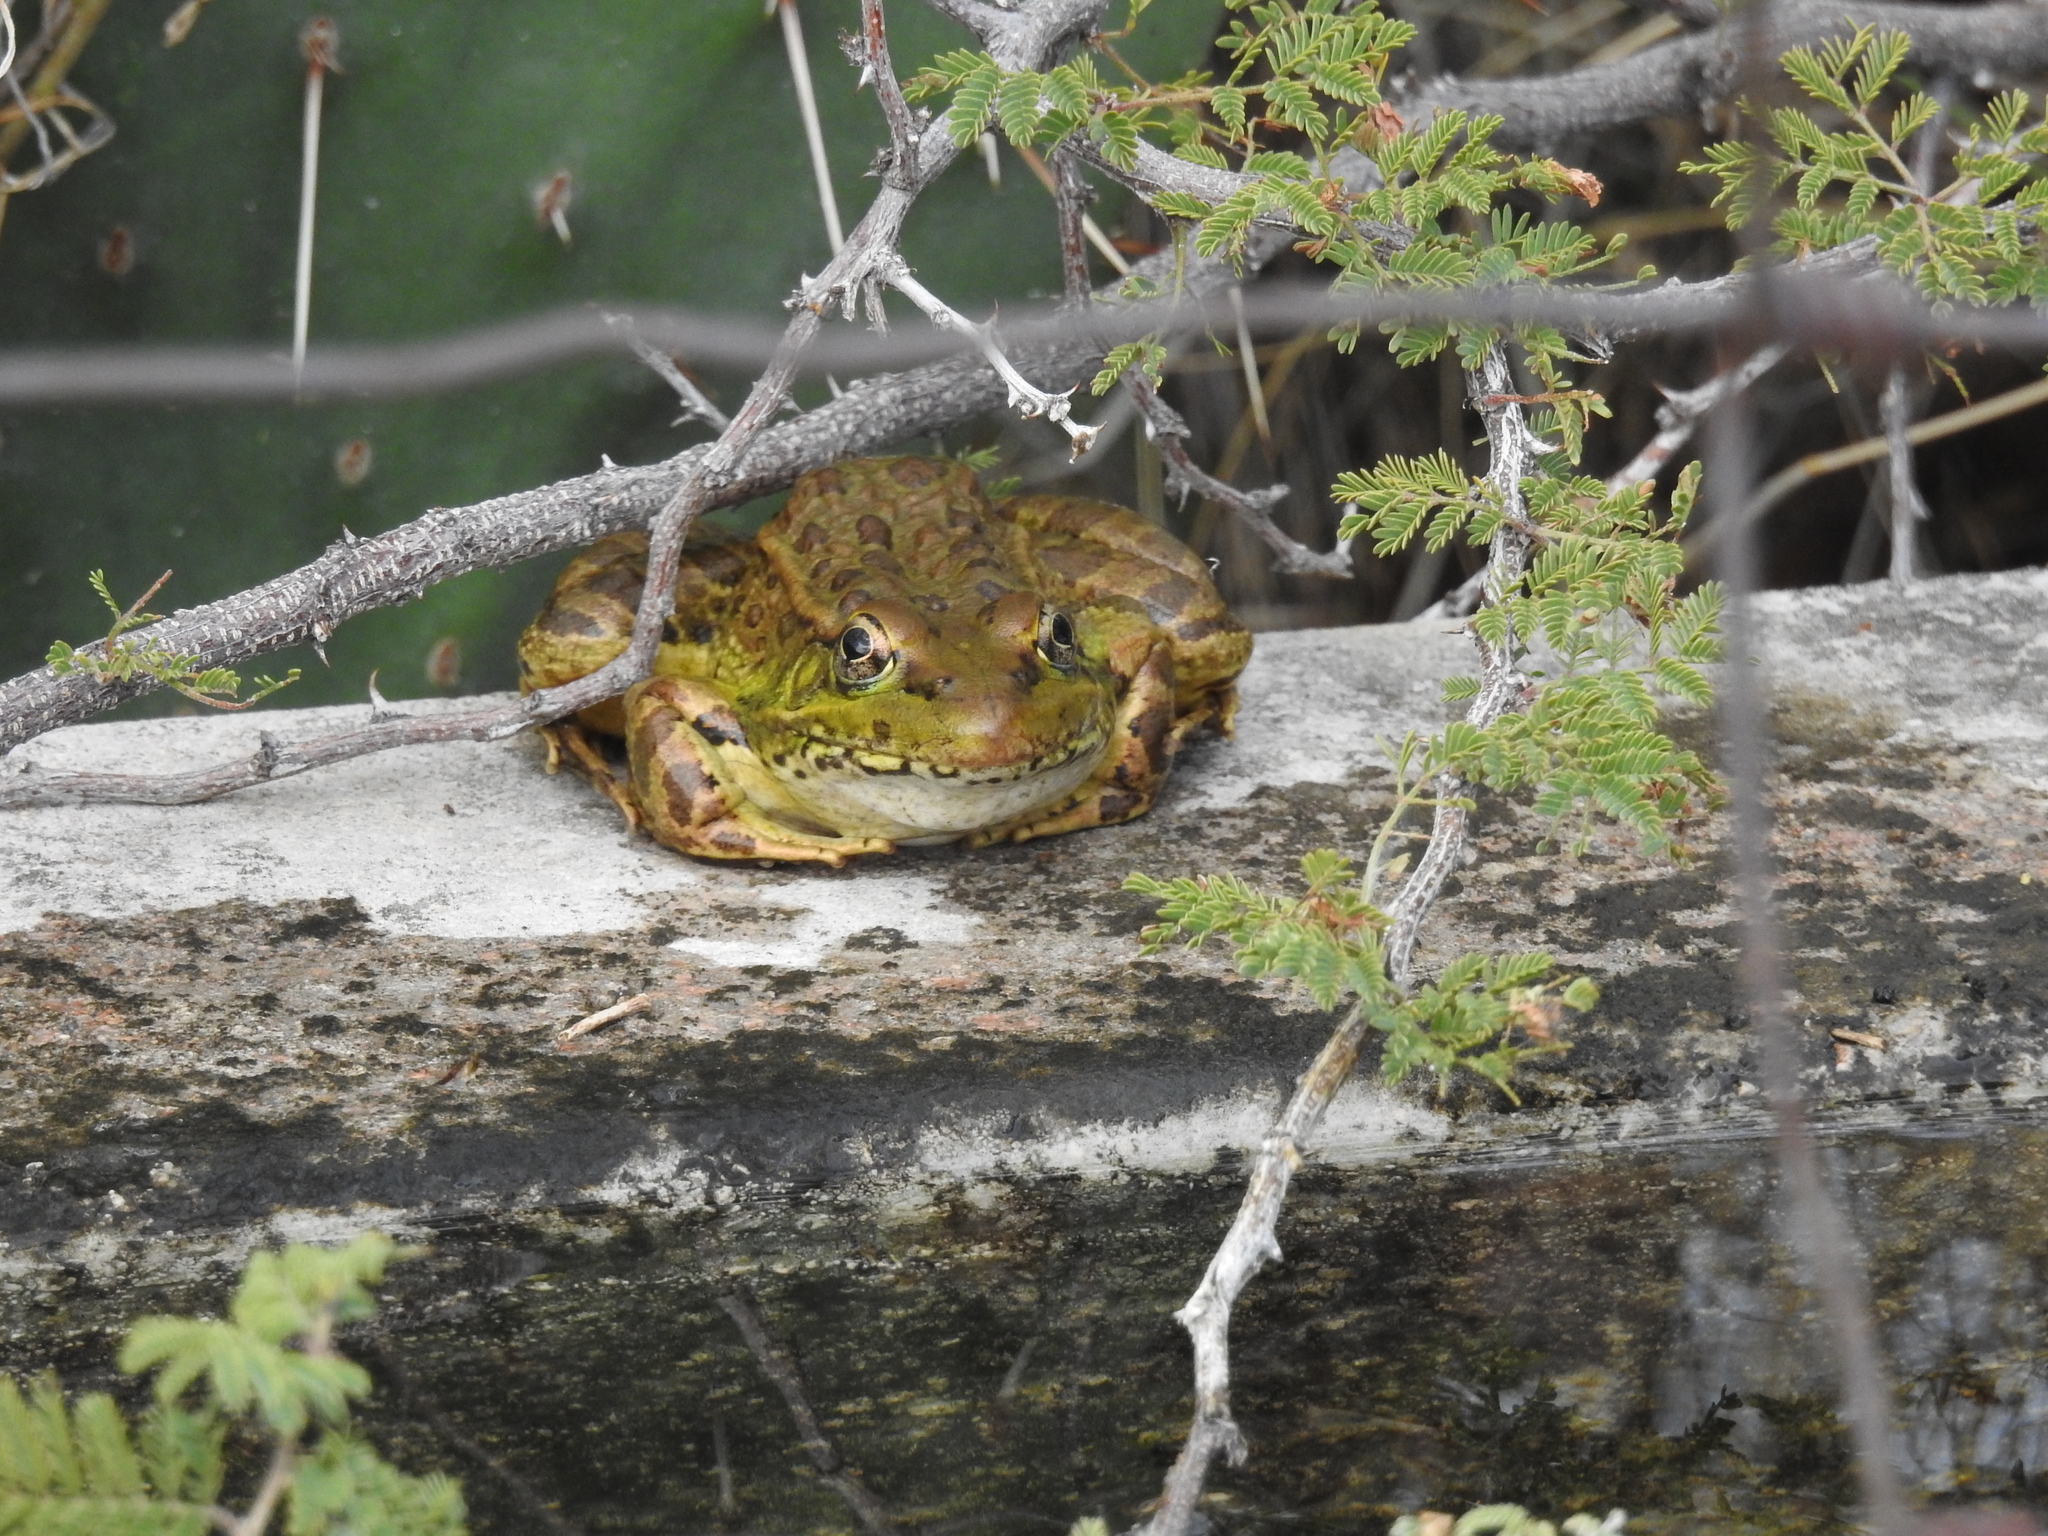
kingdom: Animalia
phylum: Chordata
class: Amphibia
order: Anura
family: Ranidae
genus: Lithobates
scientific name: Lithobates yavapaiensis
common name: Lowland leopard frog
